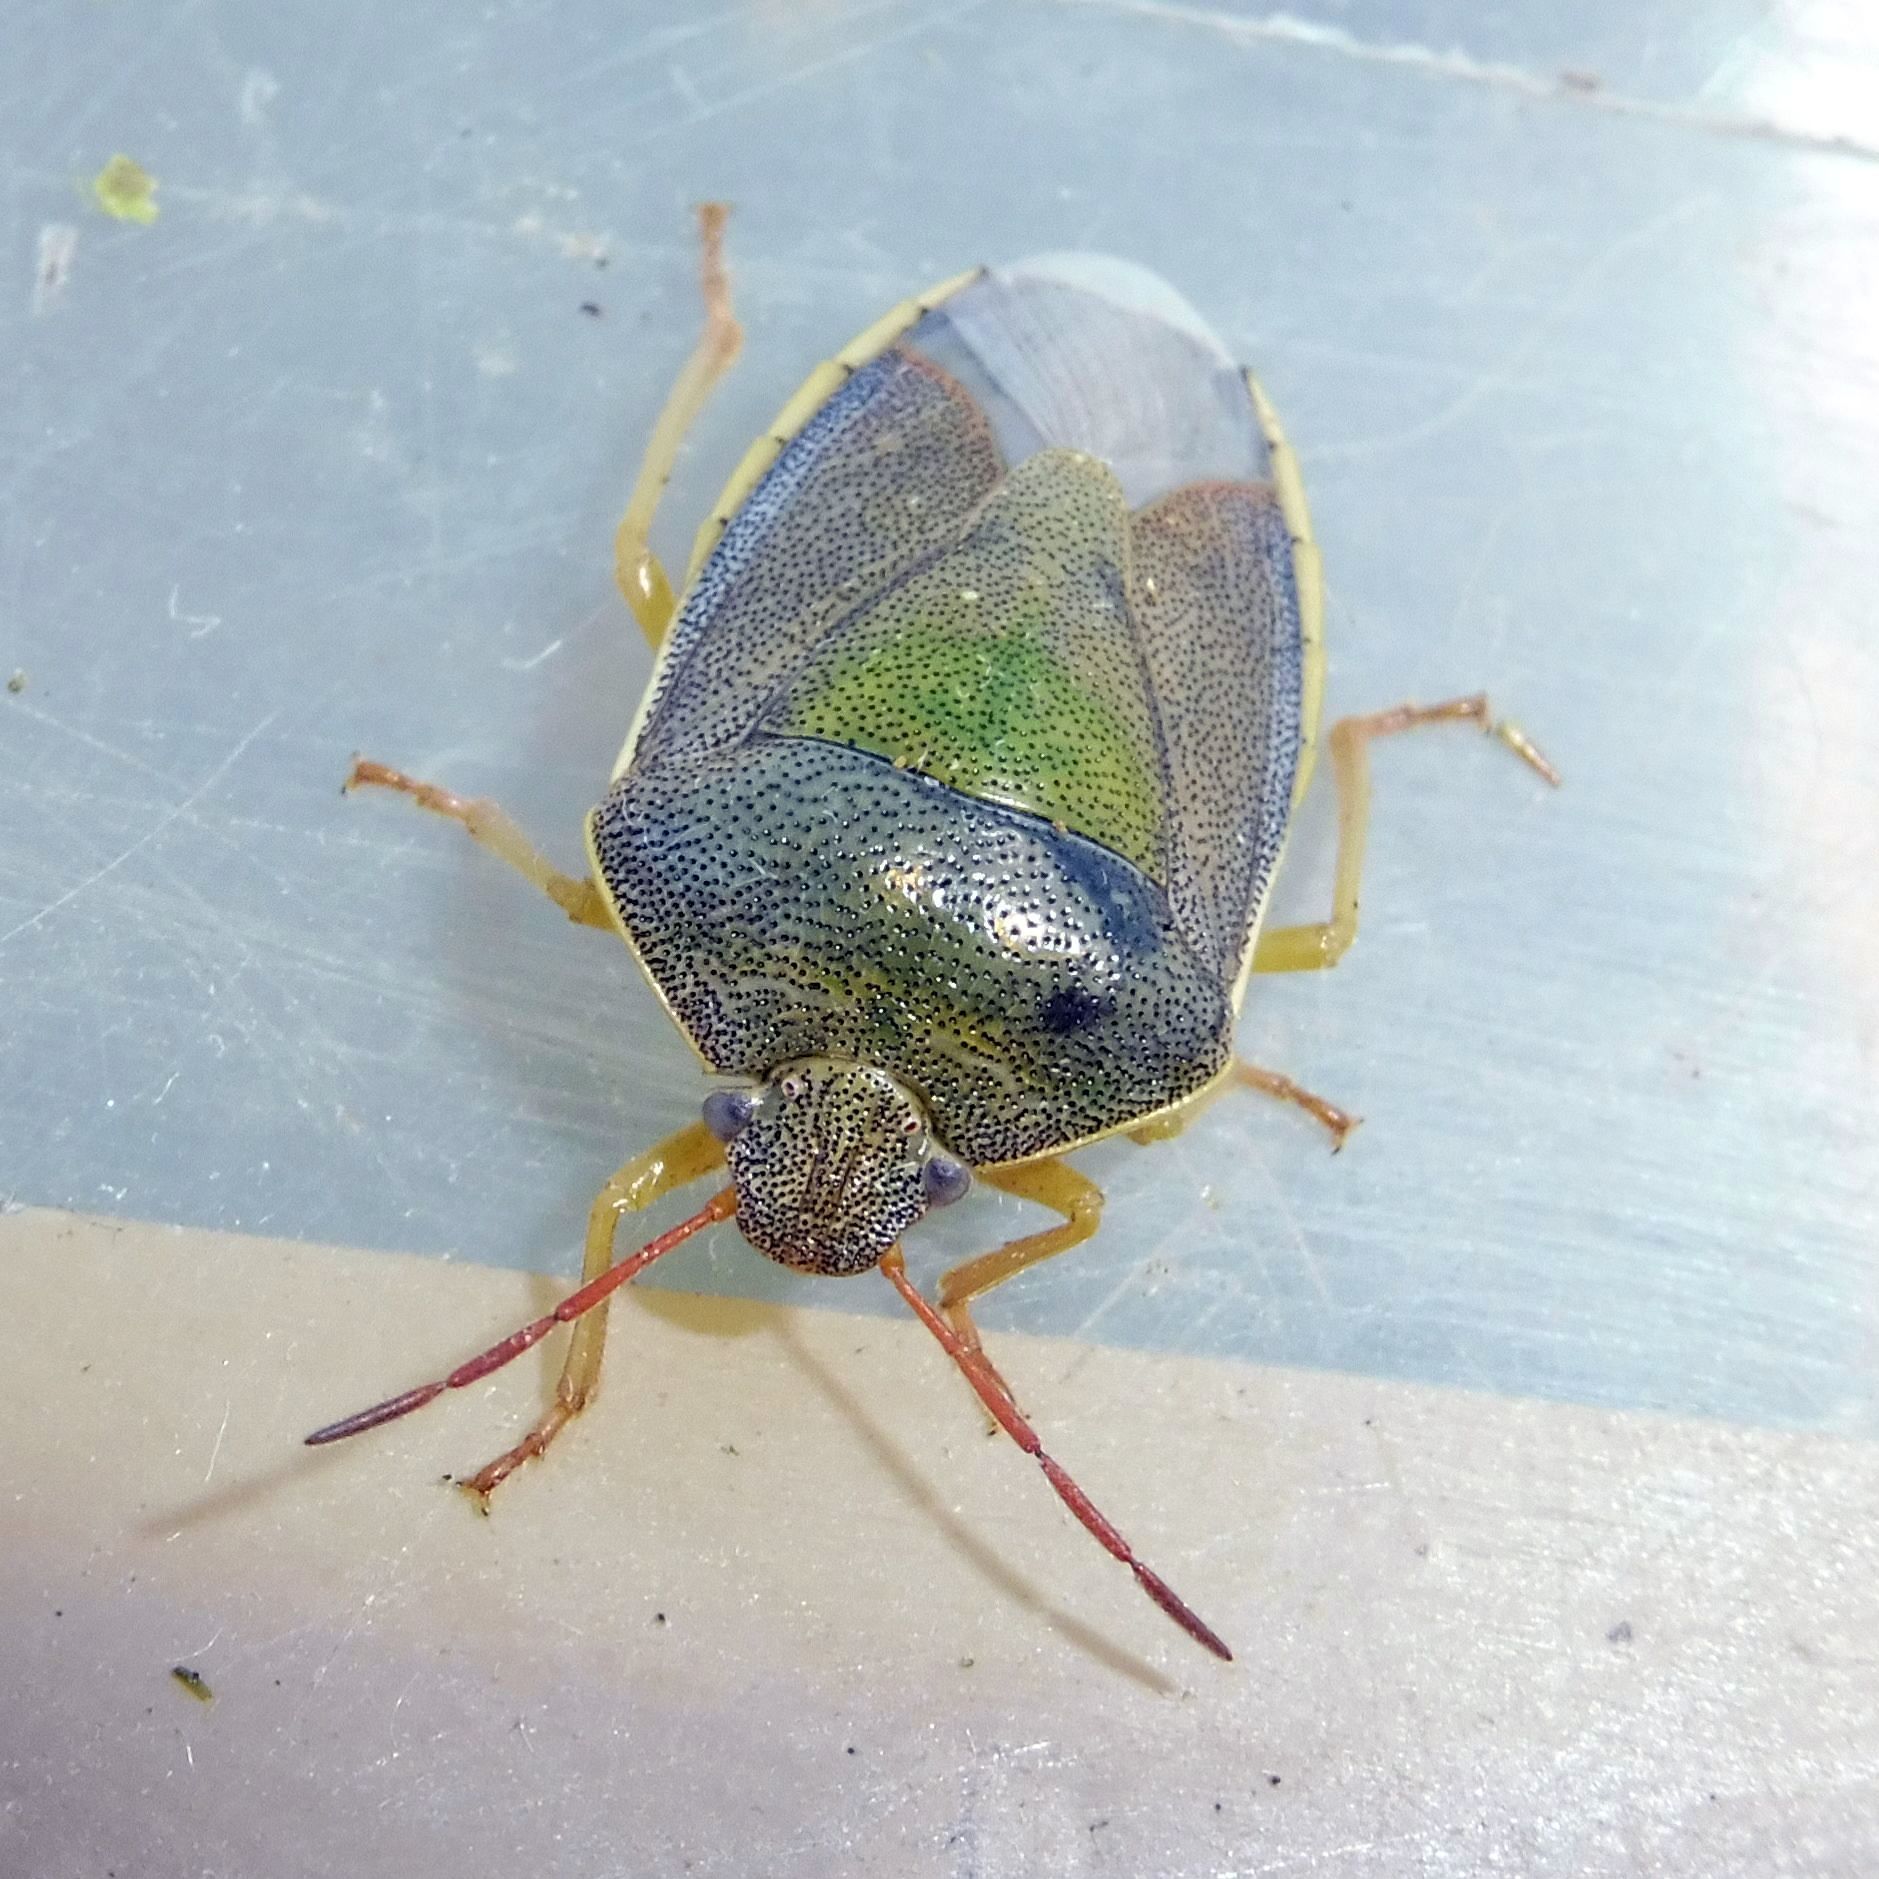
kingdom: Animalia
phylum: Arthropoda
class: Insecta
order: Hemiptera
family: Pentatomidae
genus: Piezodorus
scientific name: Piezodorus lituratus
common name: Stink bug
